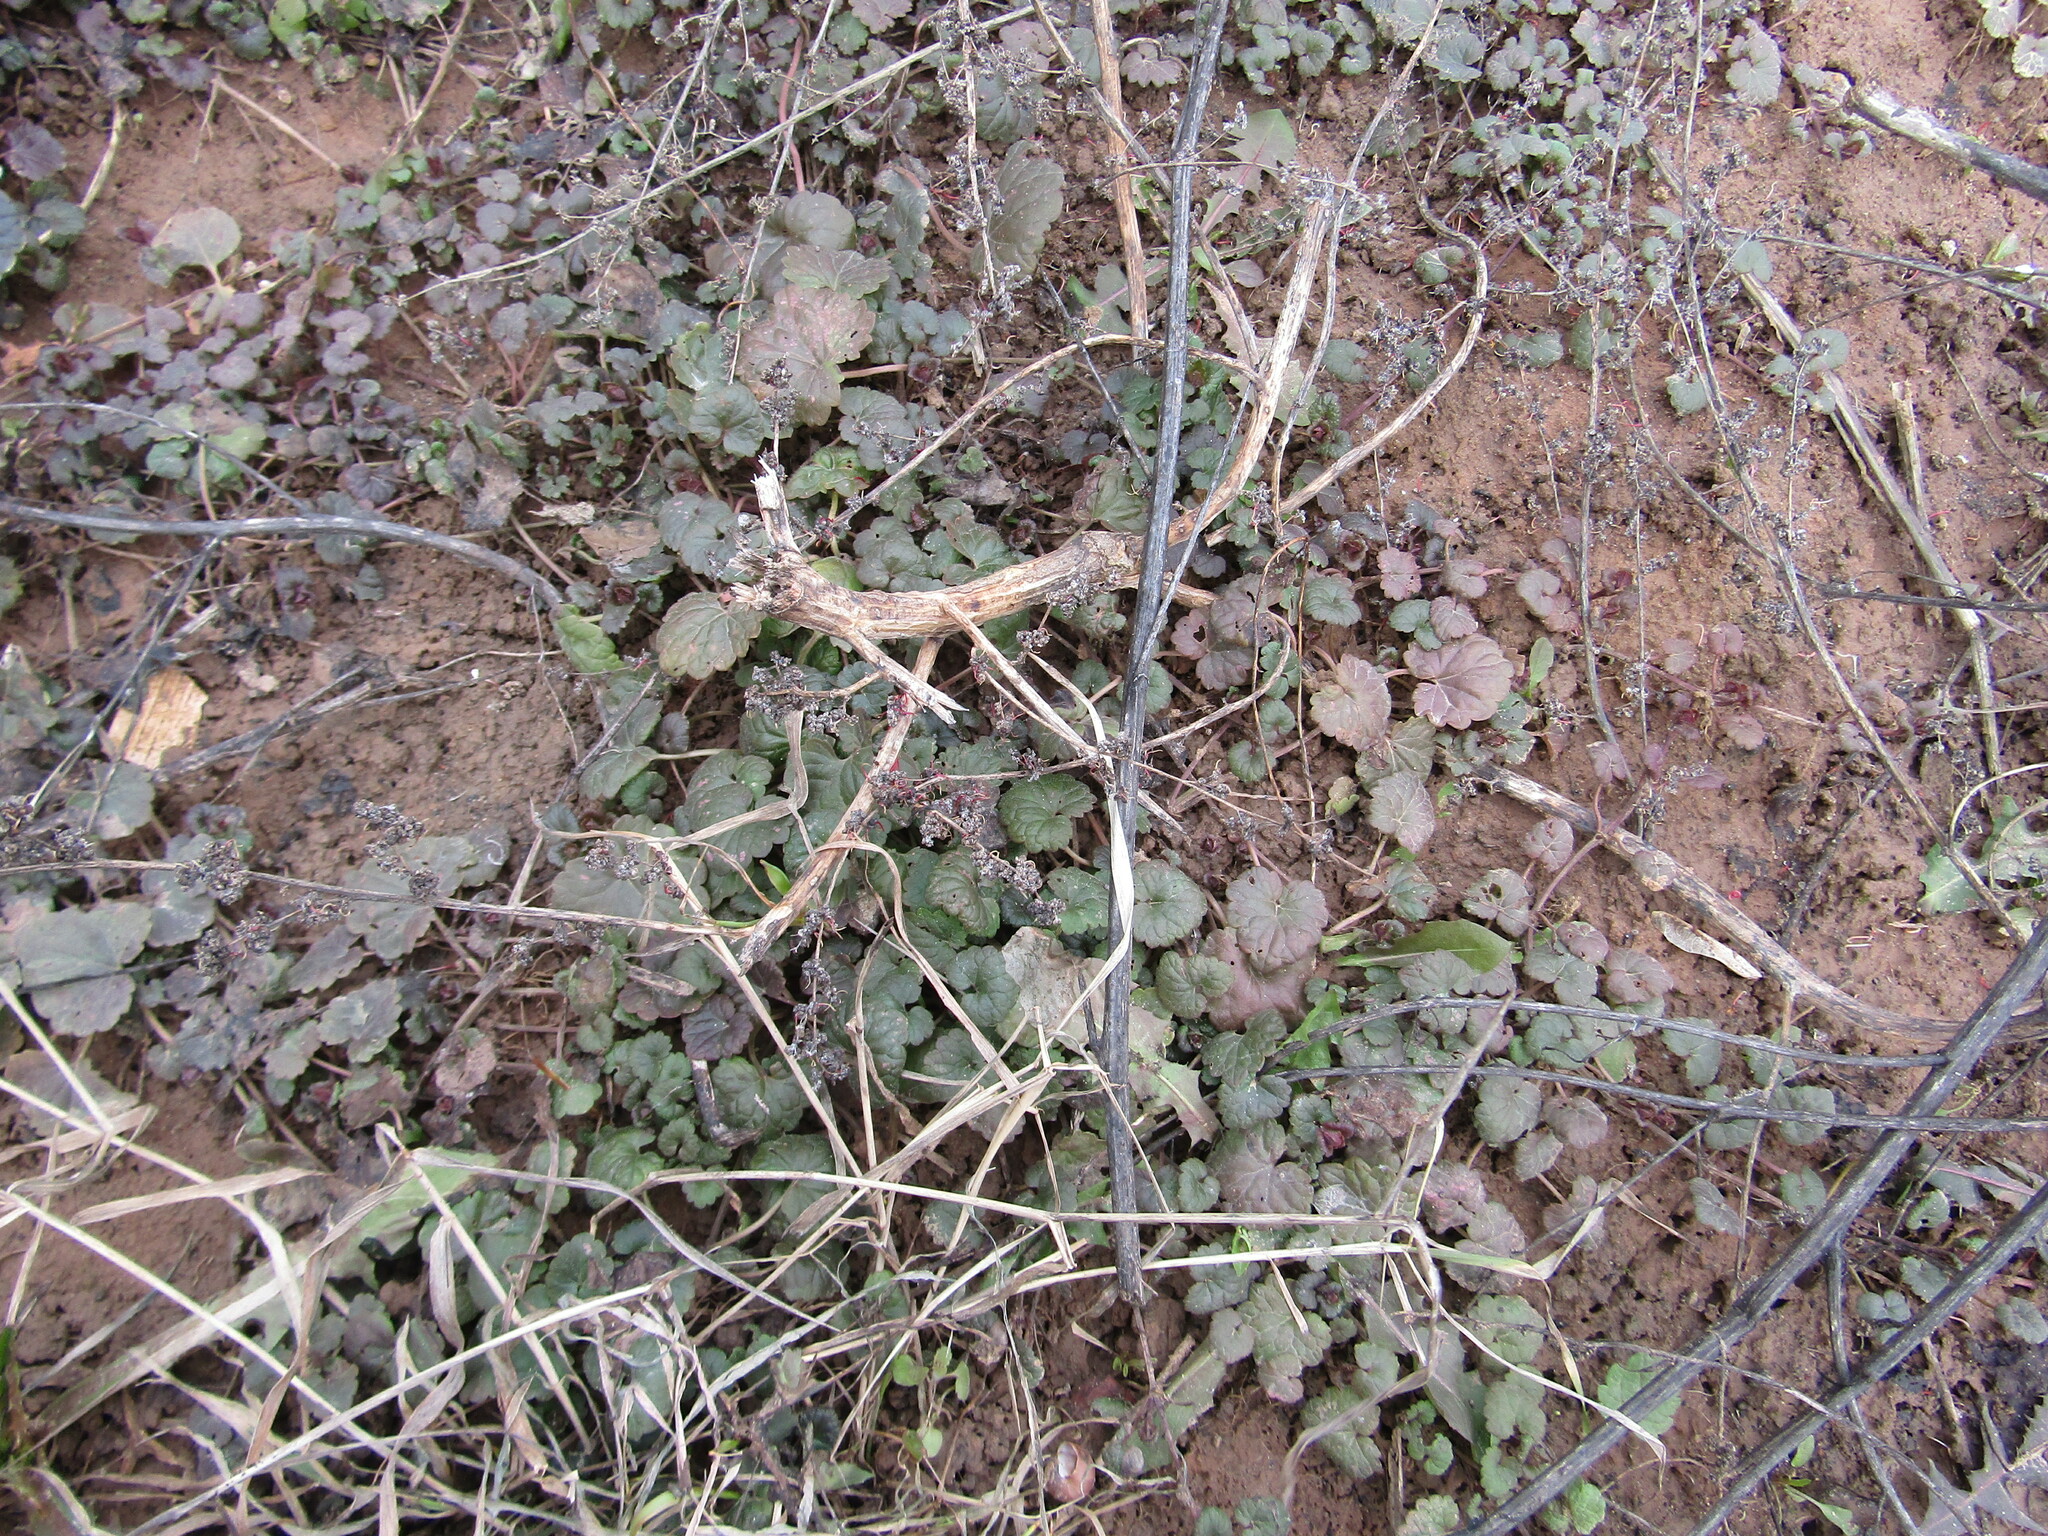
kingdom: Plantae
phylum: Tracheophyta
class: Magnoliopsida
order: Lamiales
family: Lamiaceae
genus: Glechoma
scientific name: Glechoma hederacea
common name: Ground ivy
